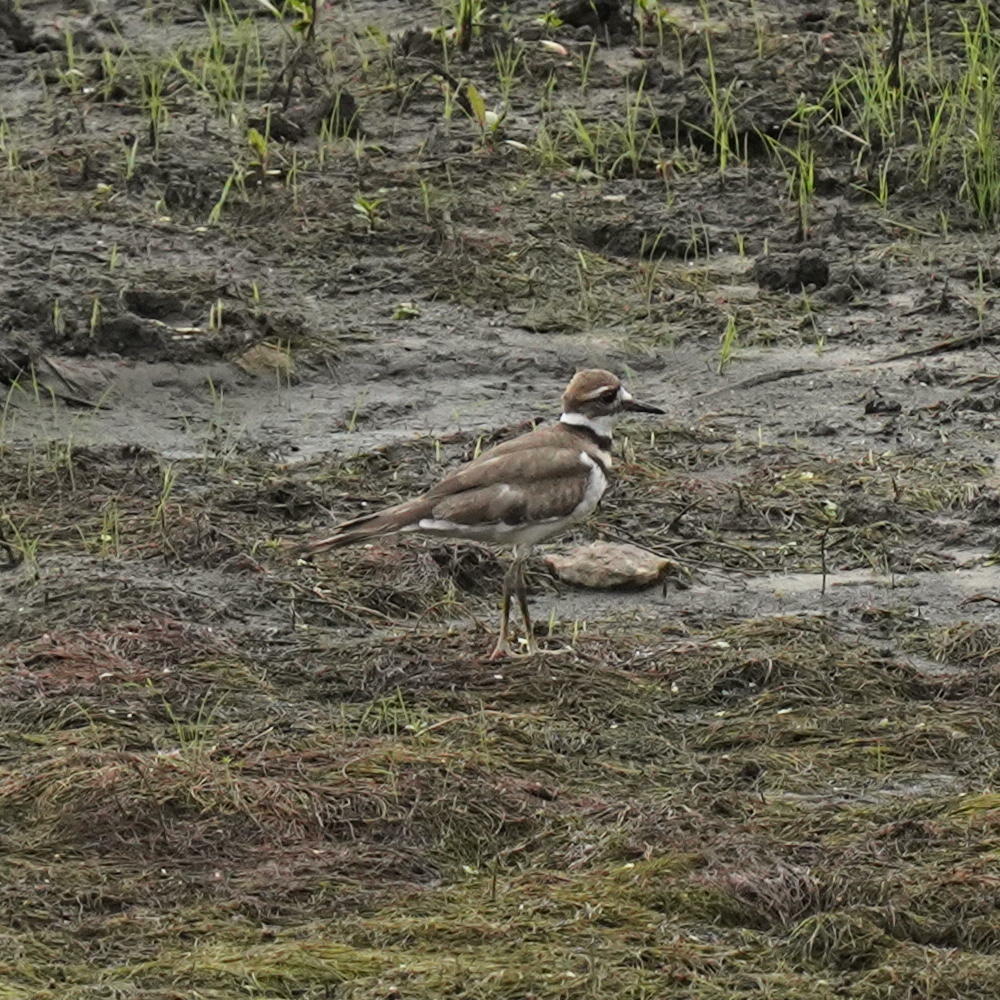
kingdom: Animalia
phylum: Chordata
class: Aves
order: Charadriiformes
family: Charadriidae
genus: Charadrius
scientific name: Charadrius vociferus
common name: Killdeer
